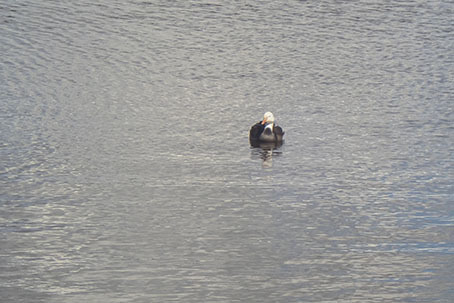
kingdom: Animalia
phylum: Chordata
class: Aves
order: Anseriformes
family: Anatidae
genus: Anser
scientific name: Anser caerulescens
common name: Snow goose
